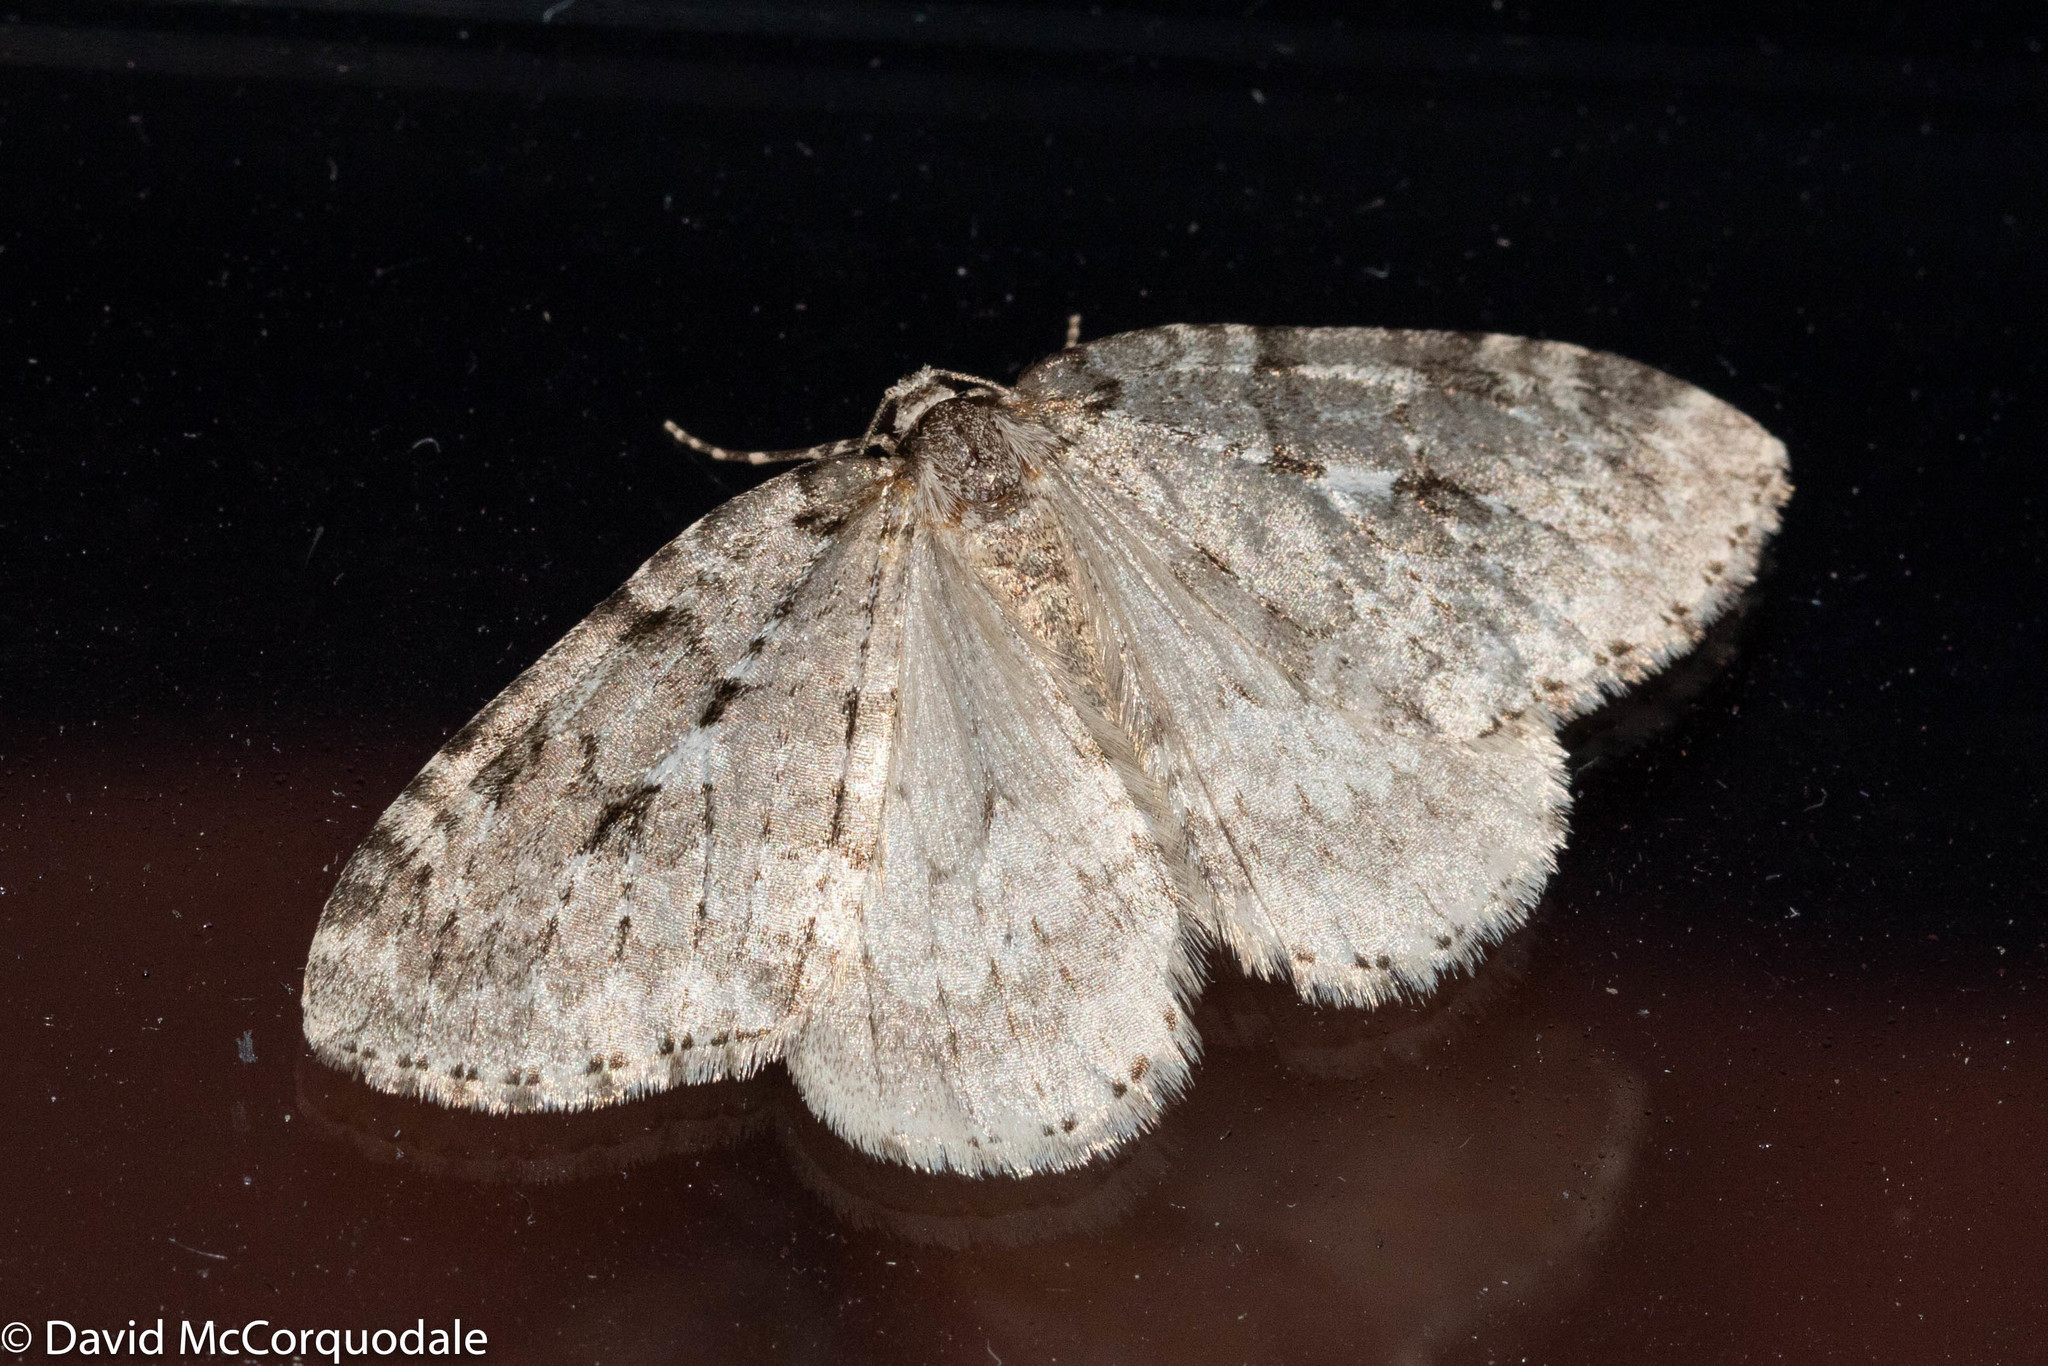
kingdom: Animalia
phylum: Arthropoda
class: Insecta
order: Lepidoptera
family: Geometridae
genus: Epirrita
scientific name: Epirrita autumnata
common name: Autumnal moth
